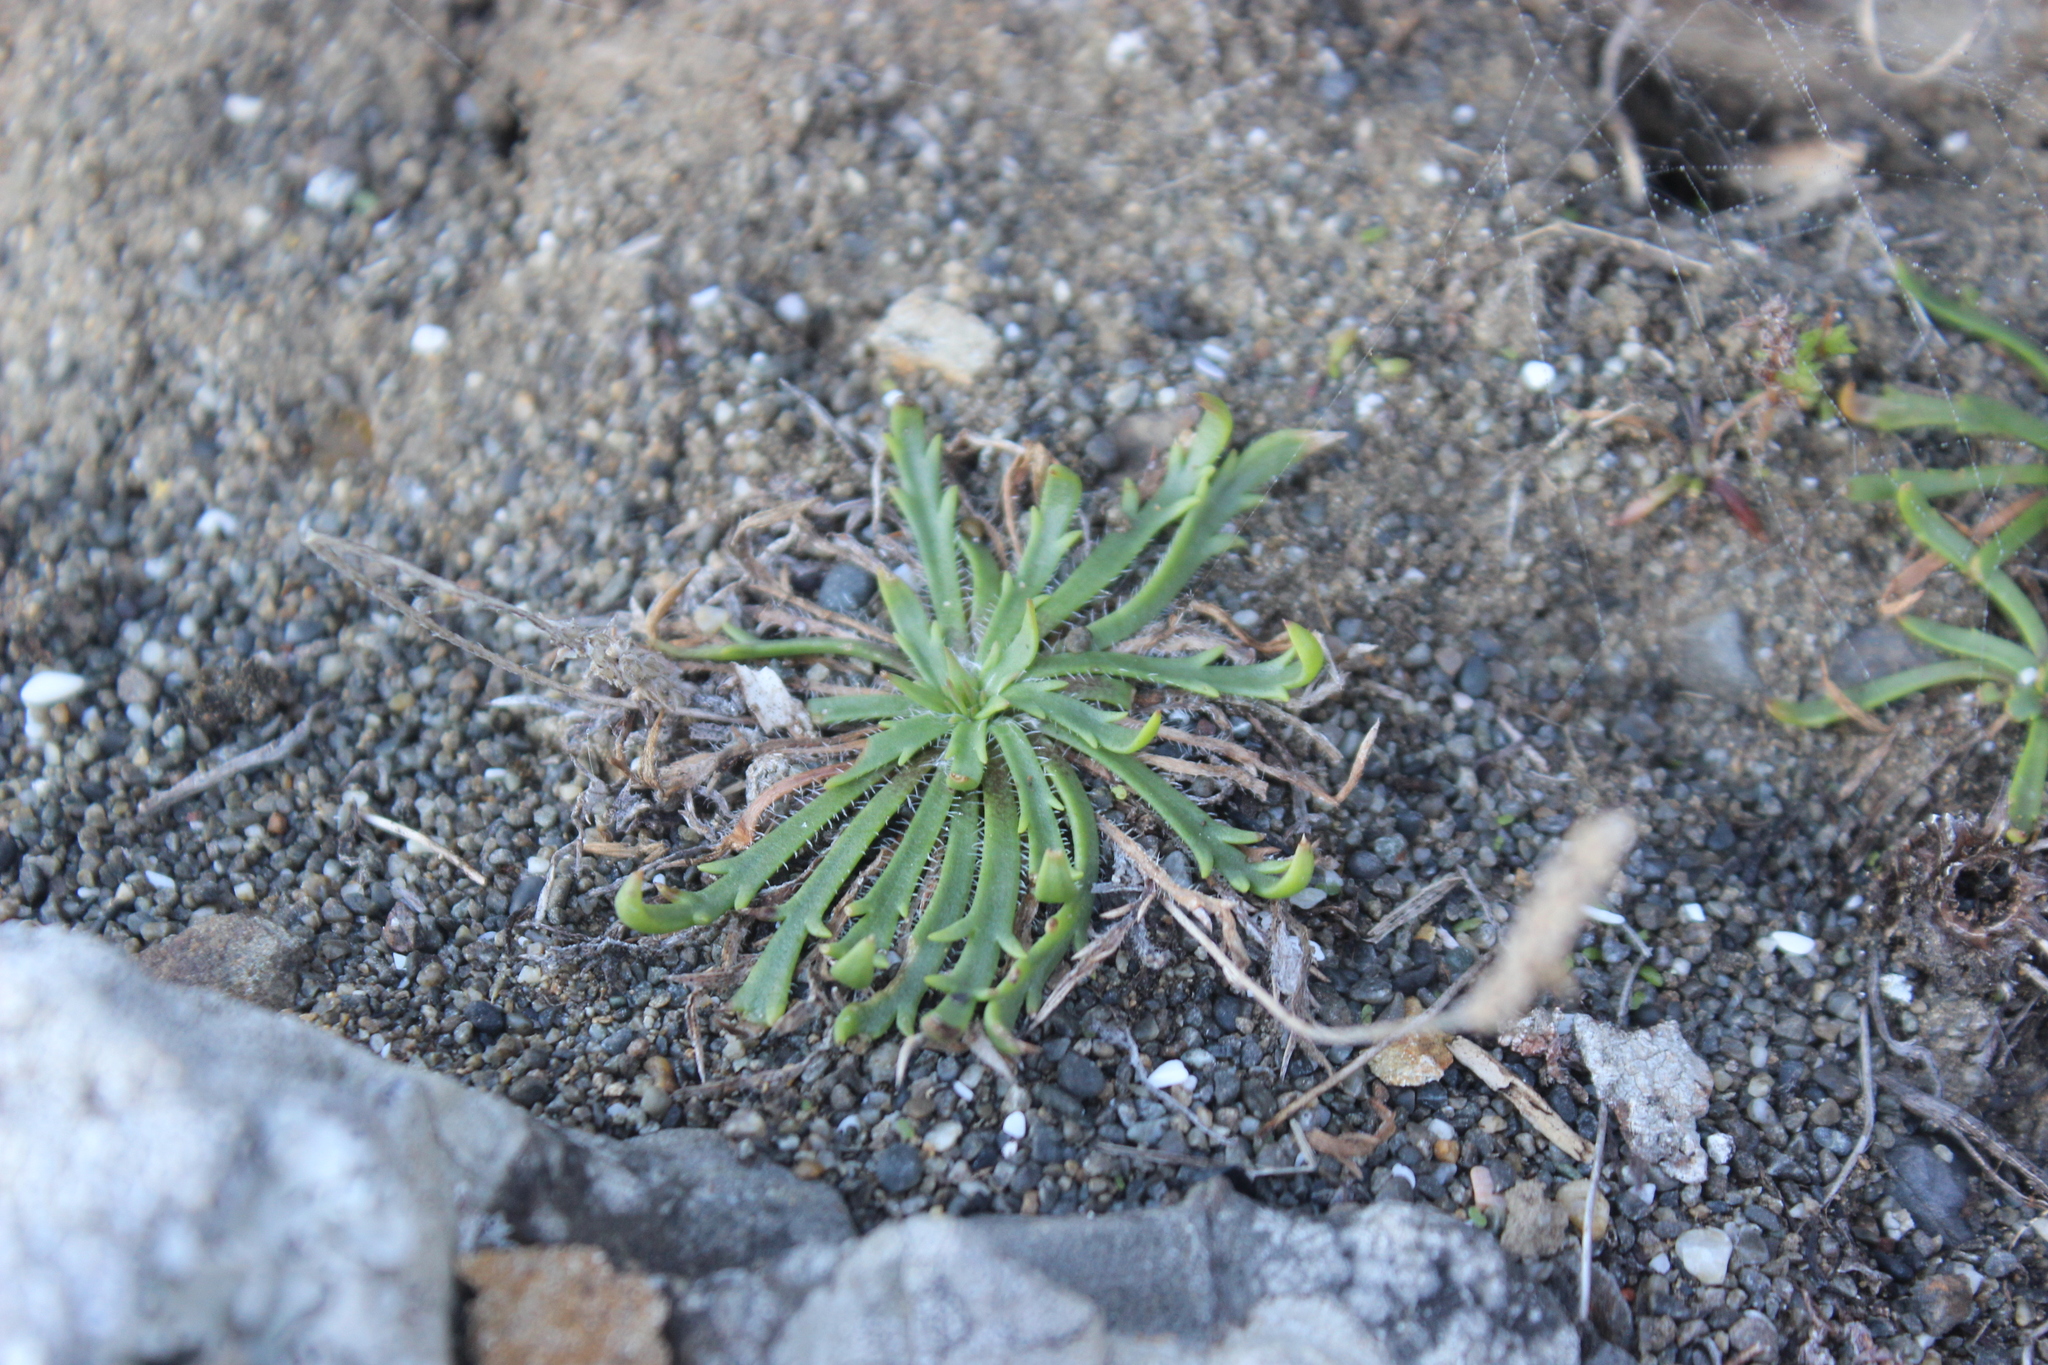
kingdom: Plantae
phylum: Tracheophyta
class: Magnoliopsida
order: Lamiales
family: Plantaginaceae
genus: Plantago
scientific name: Plantago coronopus
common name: Buck's-horn plantain
